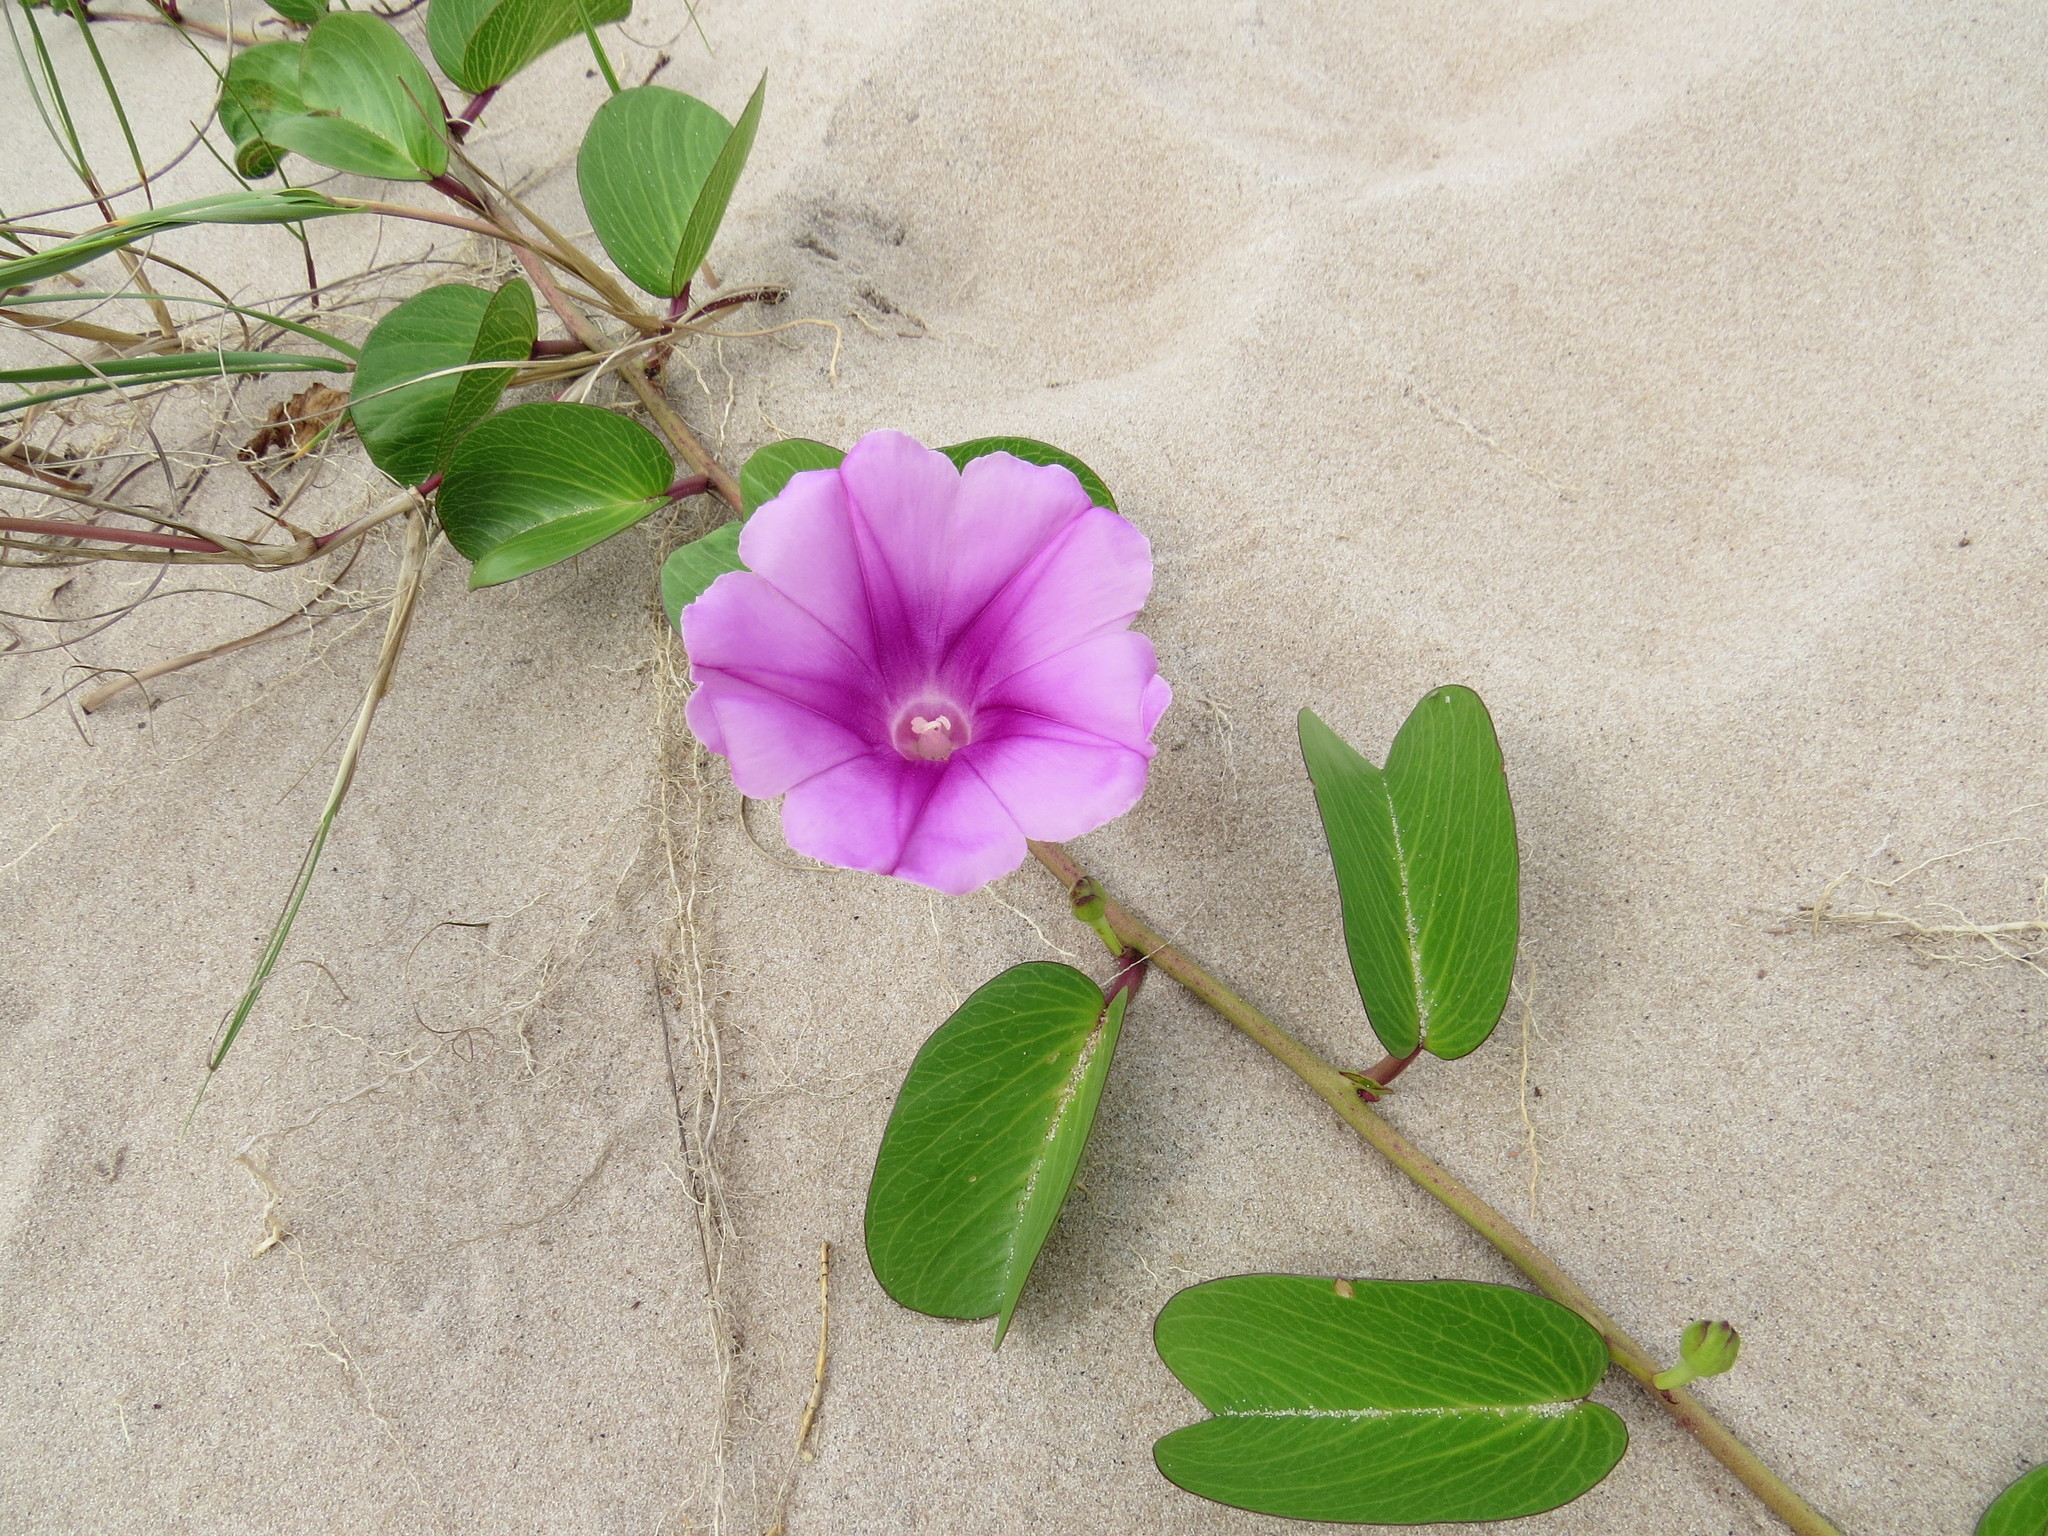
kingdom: Plantae
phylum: Tracheophyta
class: Magnoliopsida
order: Solanales
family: Convolvulaceae
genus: Ipomoea
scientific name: Ipomoea pes-caprae
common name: Beach morning glory
